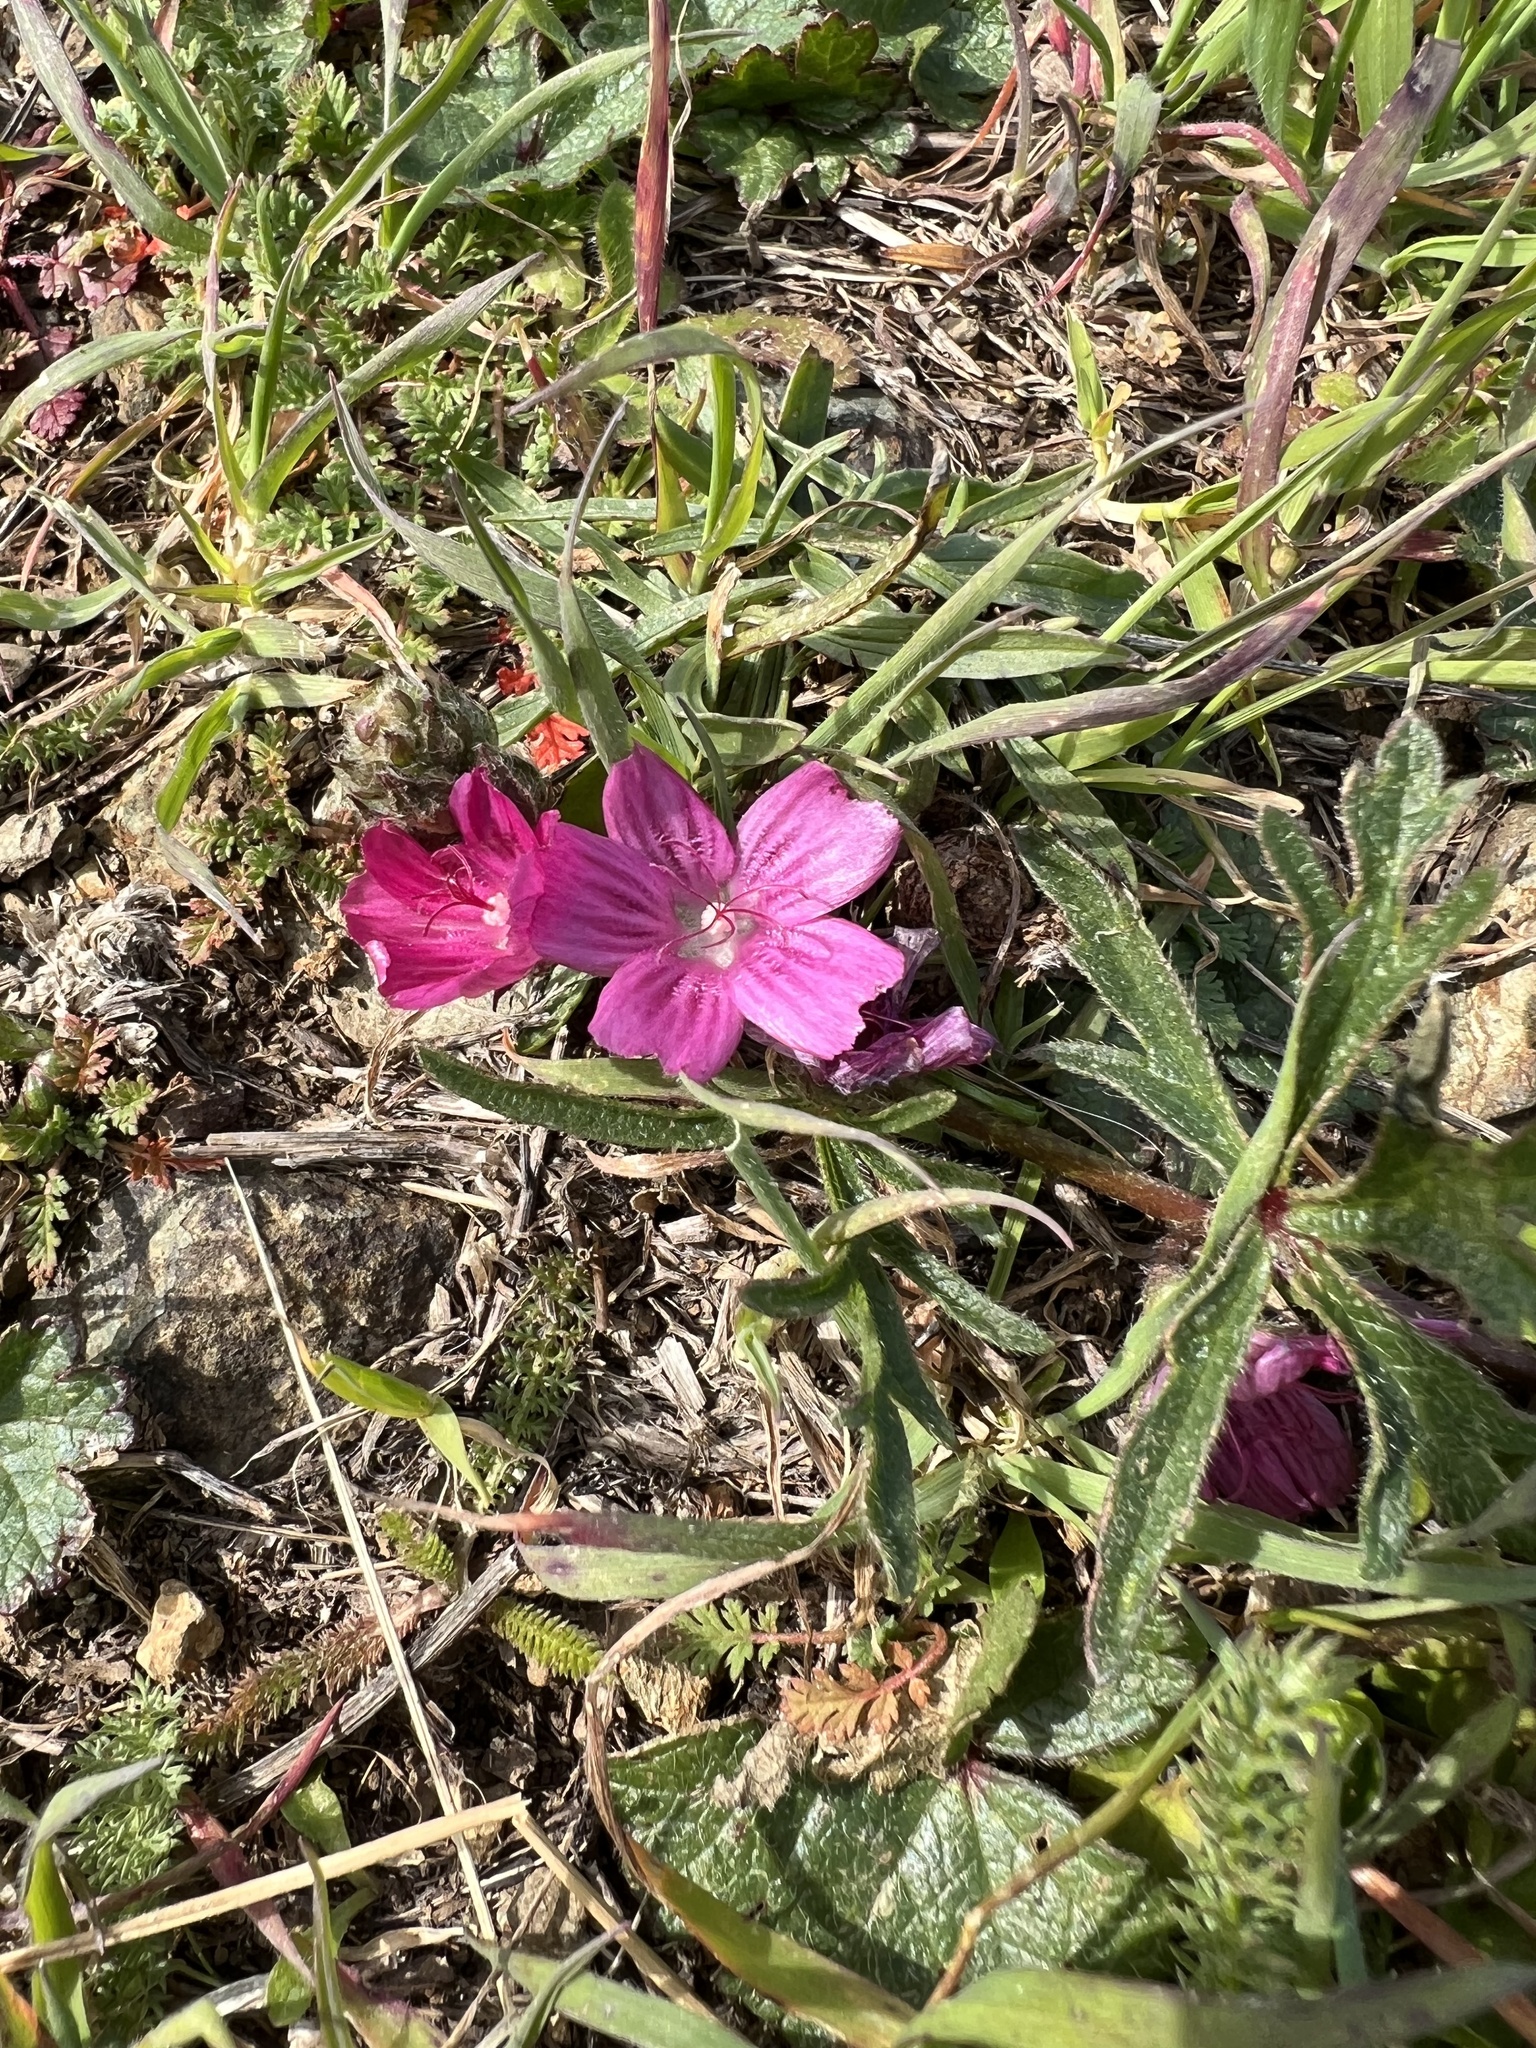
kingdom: Plantae
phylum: Tracheophyta
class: Magnoliopsida
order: Malvales
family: Malvaceae
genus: Sidalcea
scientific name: Sidalcea malviflora
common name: Greek mallow
